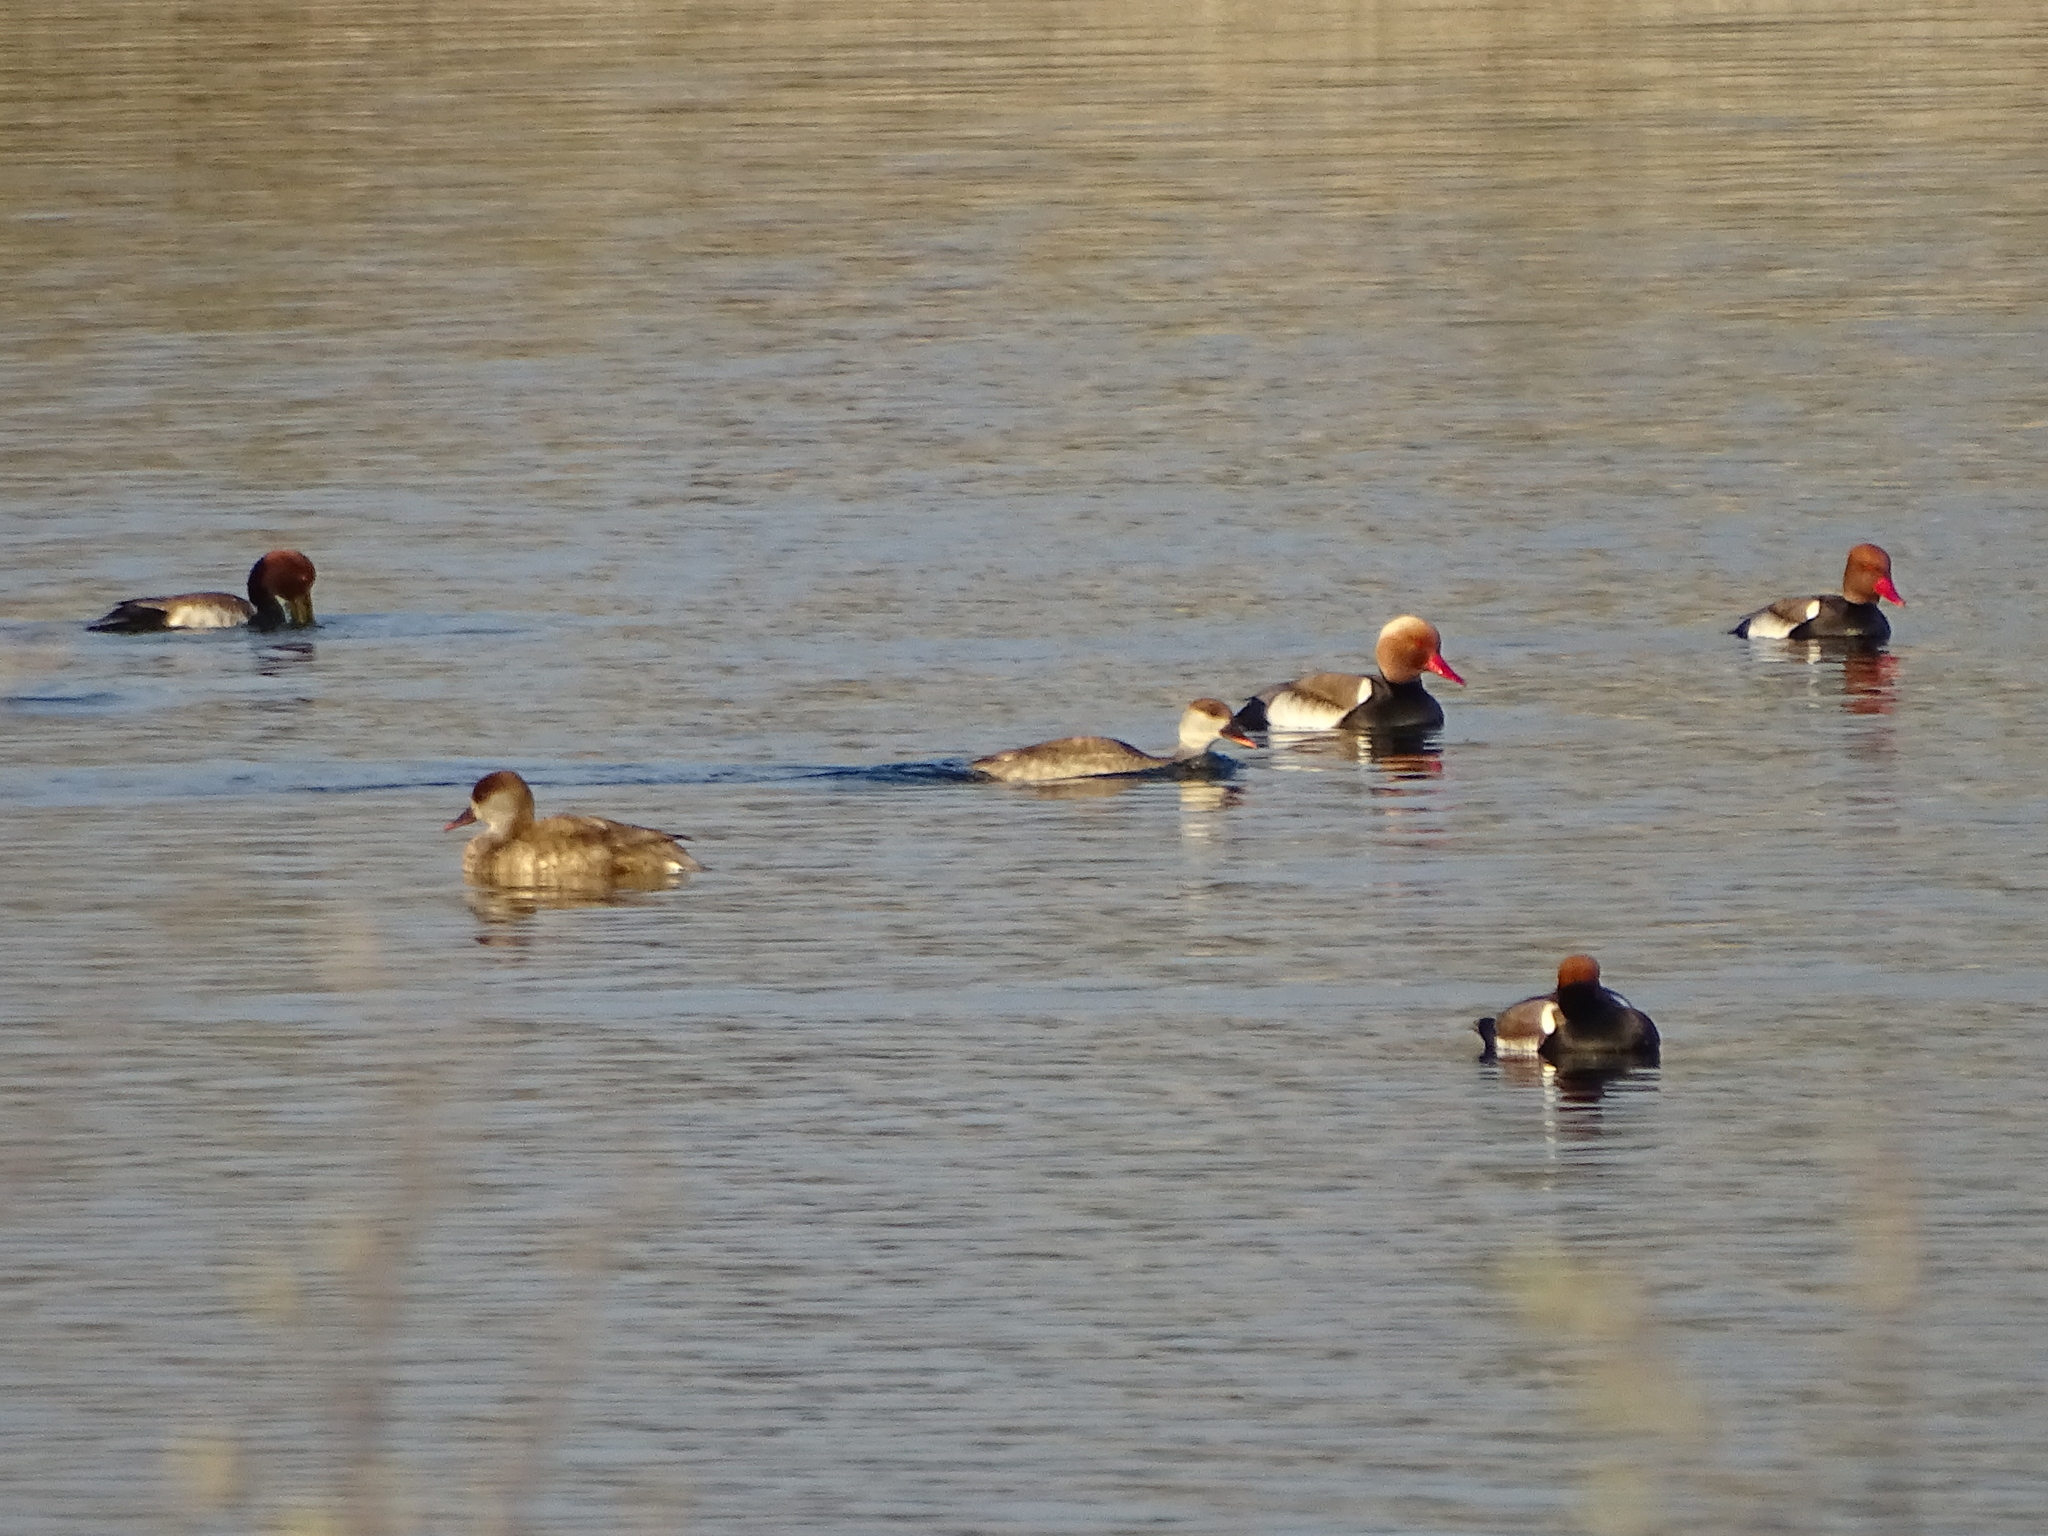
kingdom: Animalia
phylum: Chordata
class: Aves
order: Anseriformes
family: Anatidae
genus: Netta
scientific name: Netta rufina
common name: Red-crested pochard
